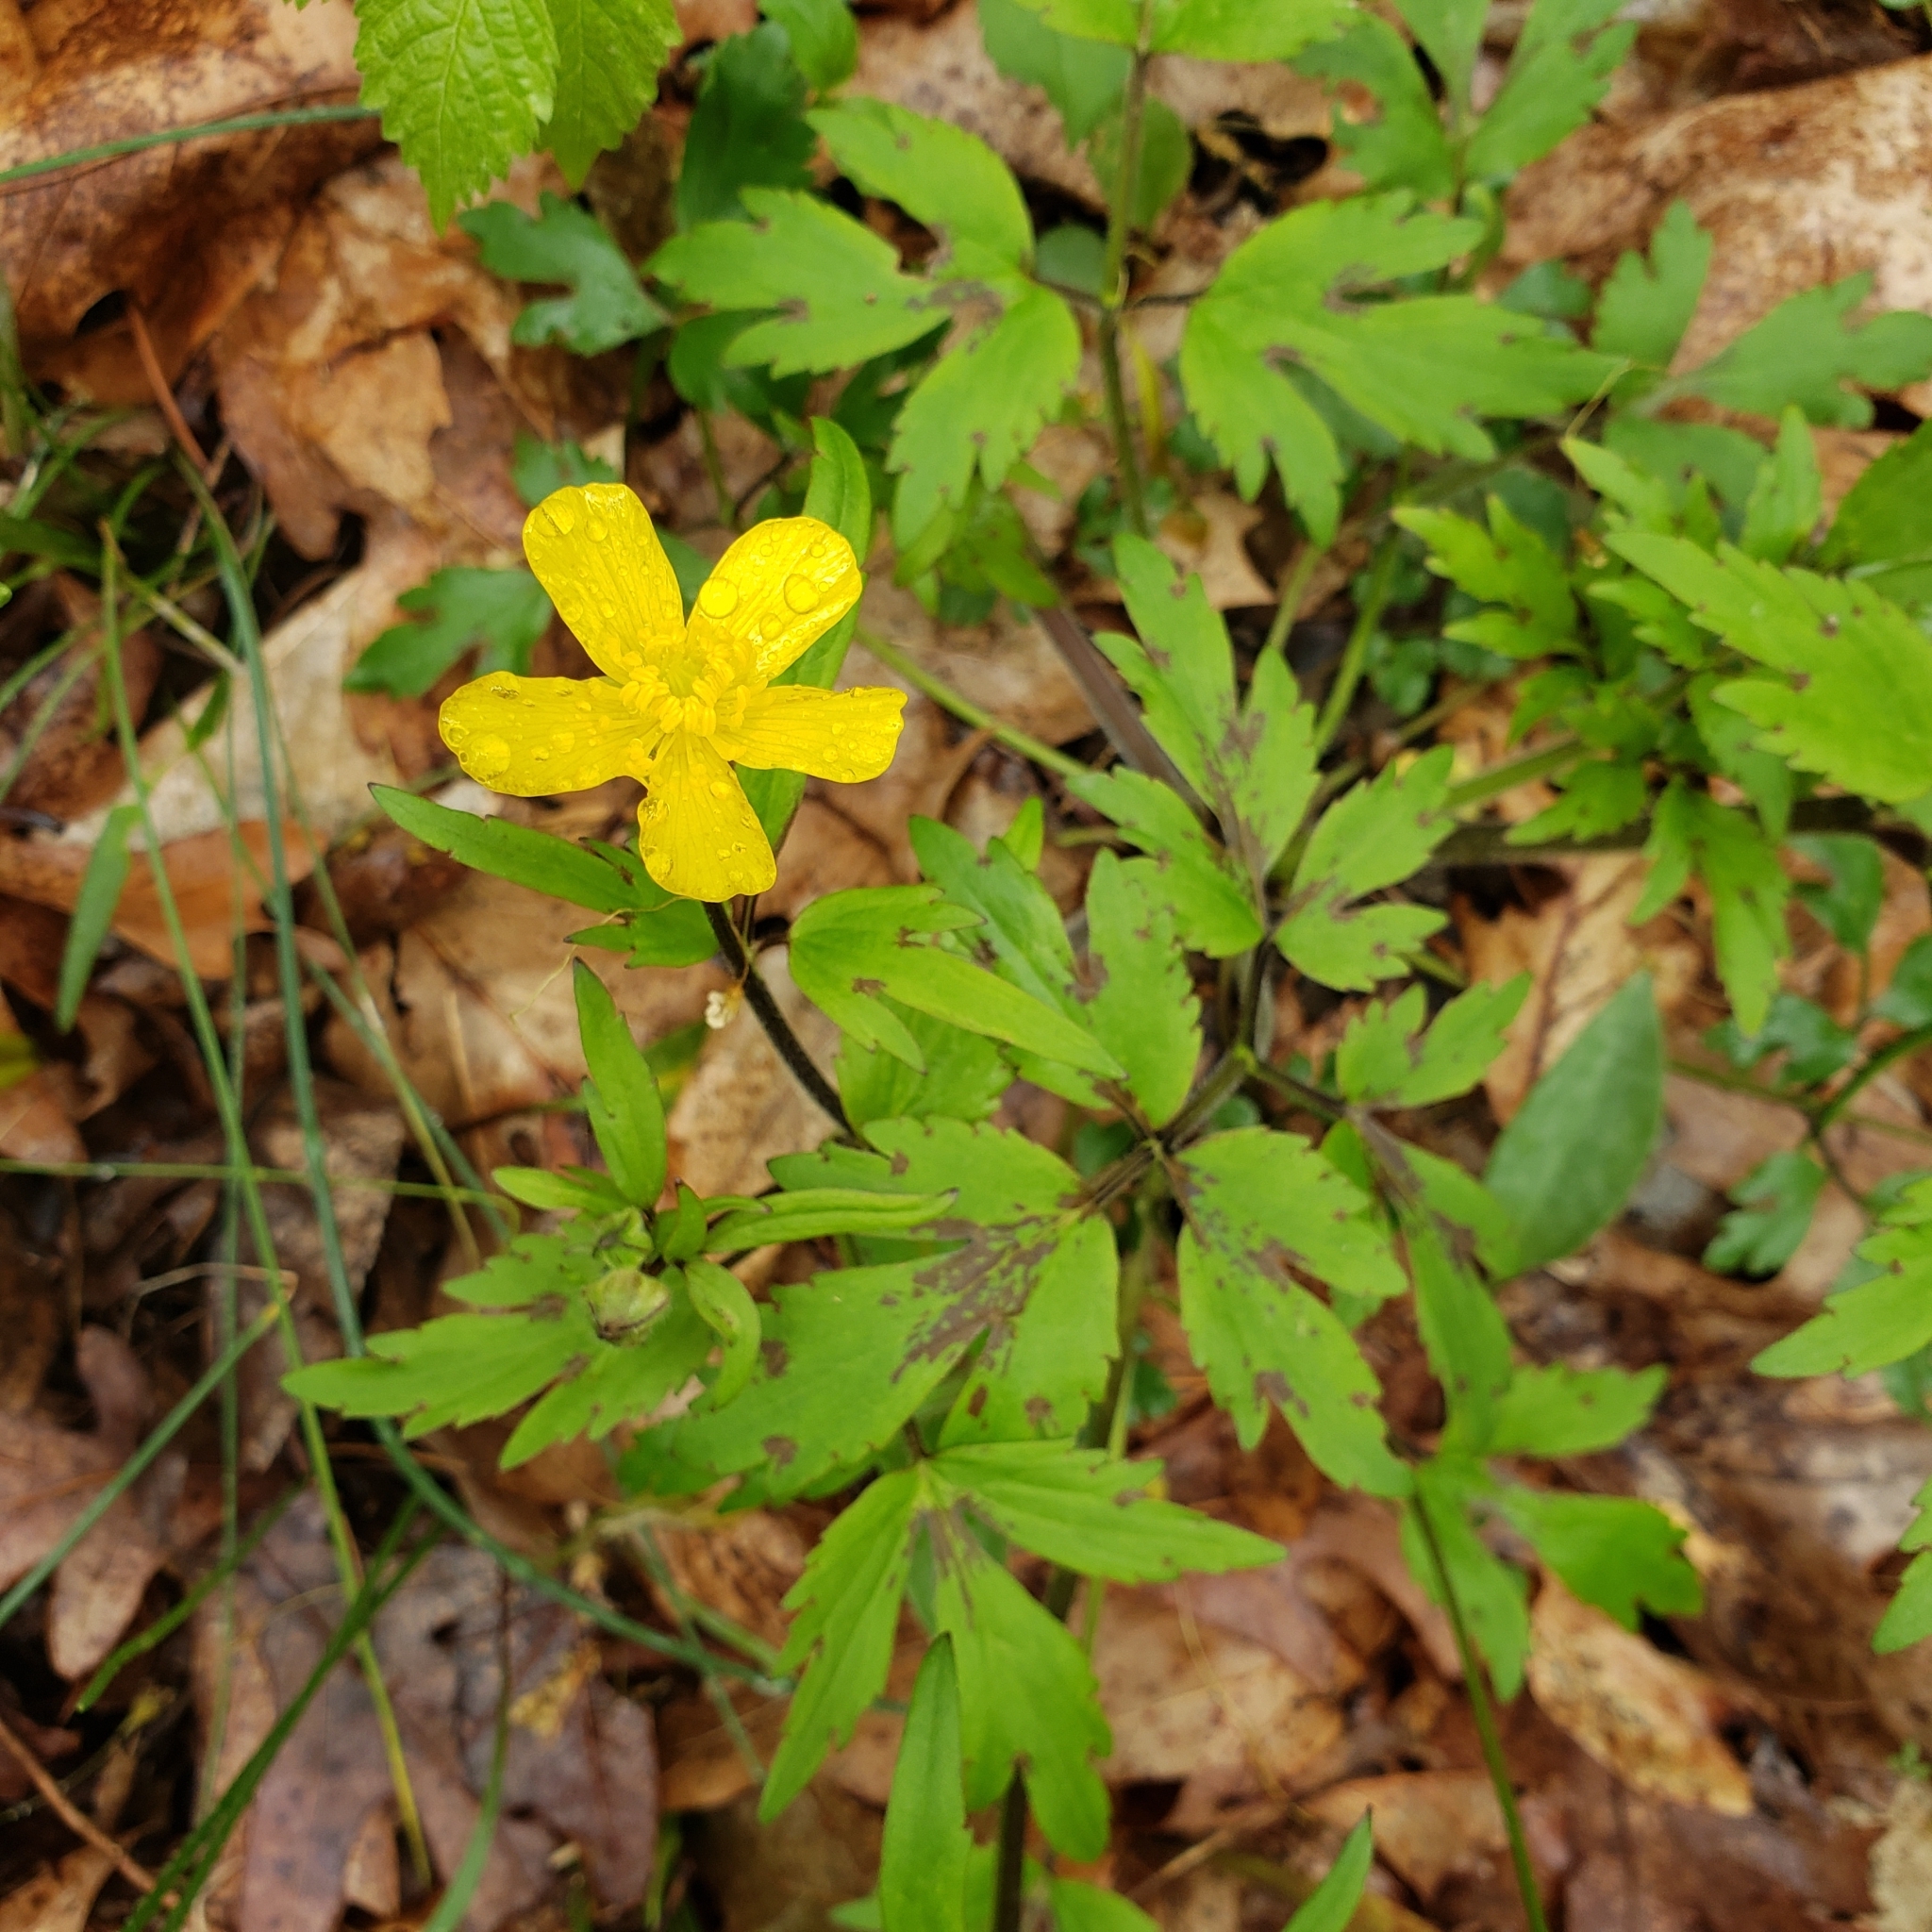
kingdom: Plantae
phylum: Tracheophyta
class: Magnoliopsida
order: Ranunculales
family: Ranunculaceae
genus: Ranunculus
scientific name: Ranunculus hispidus
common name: Bristly buttercup
